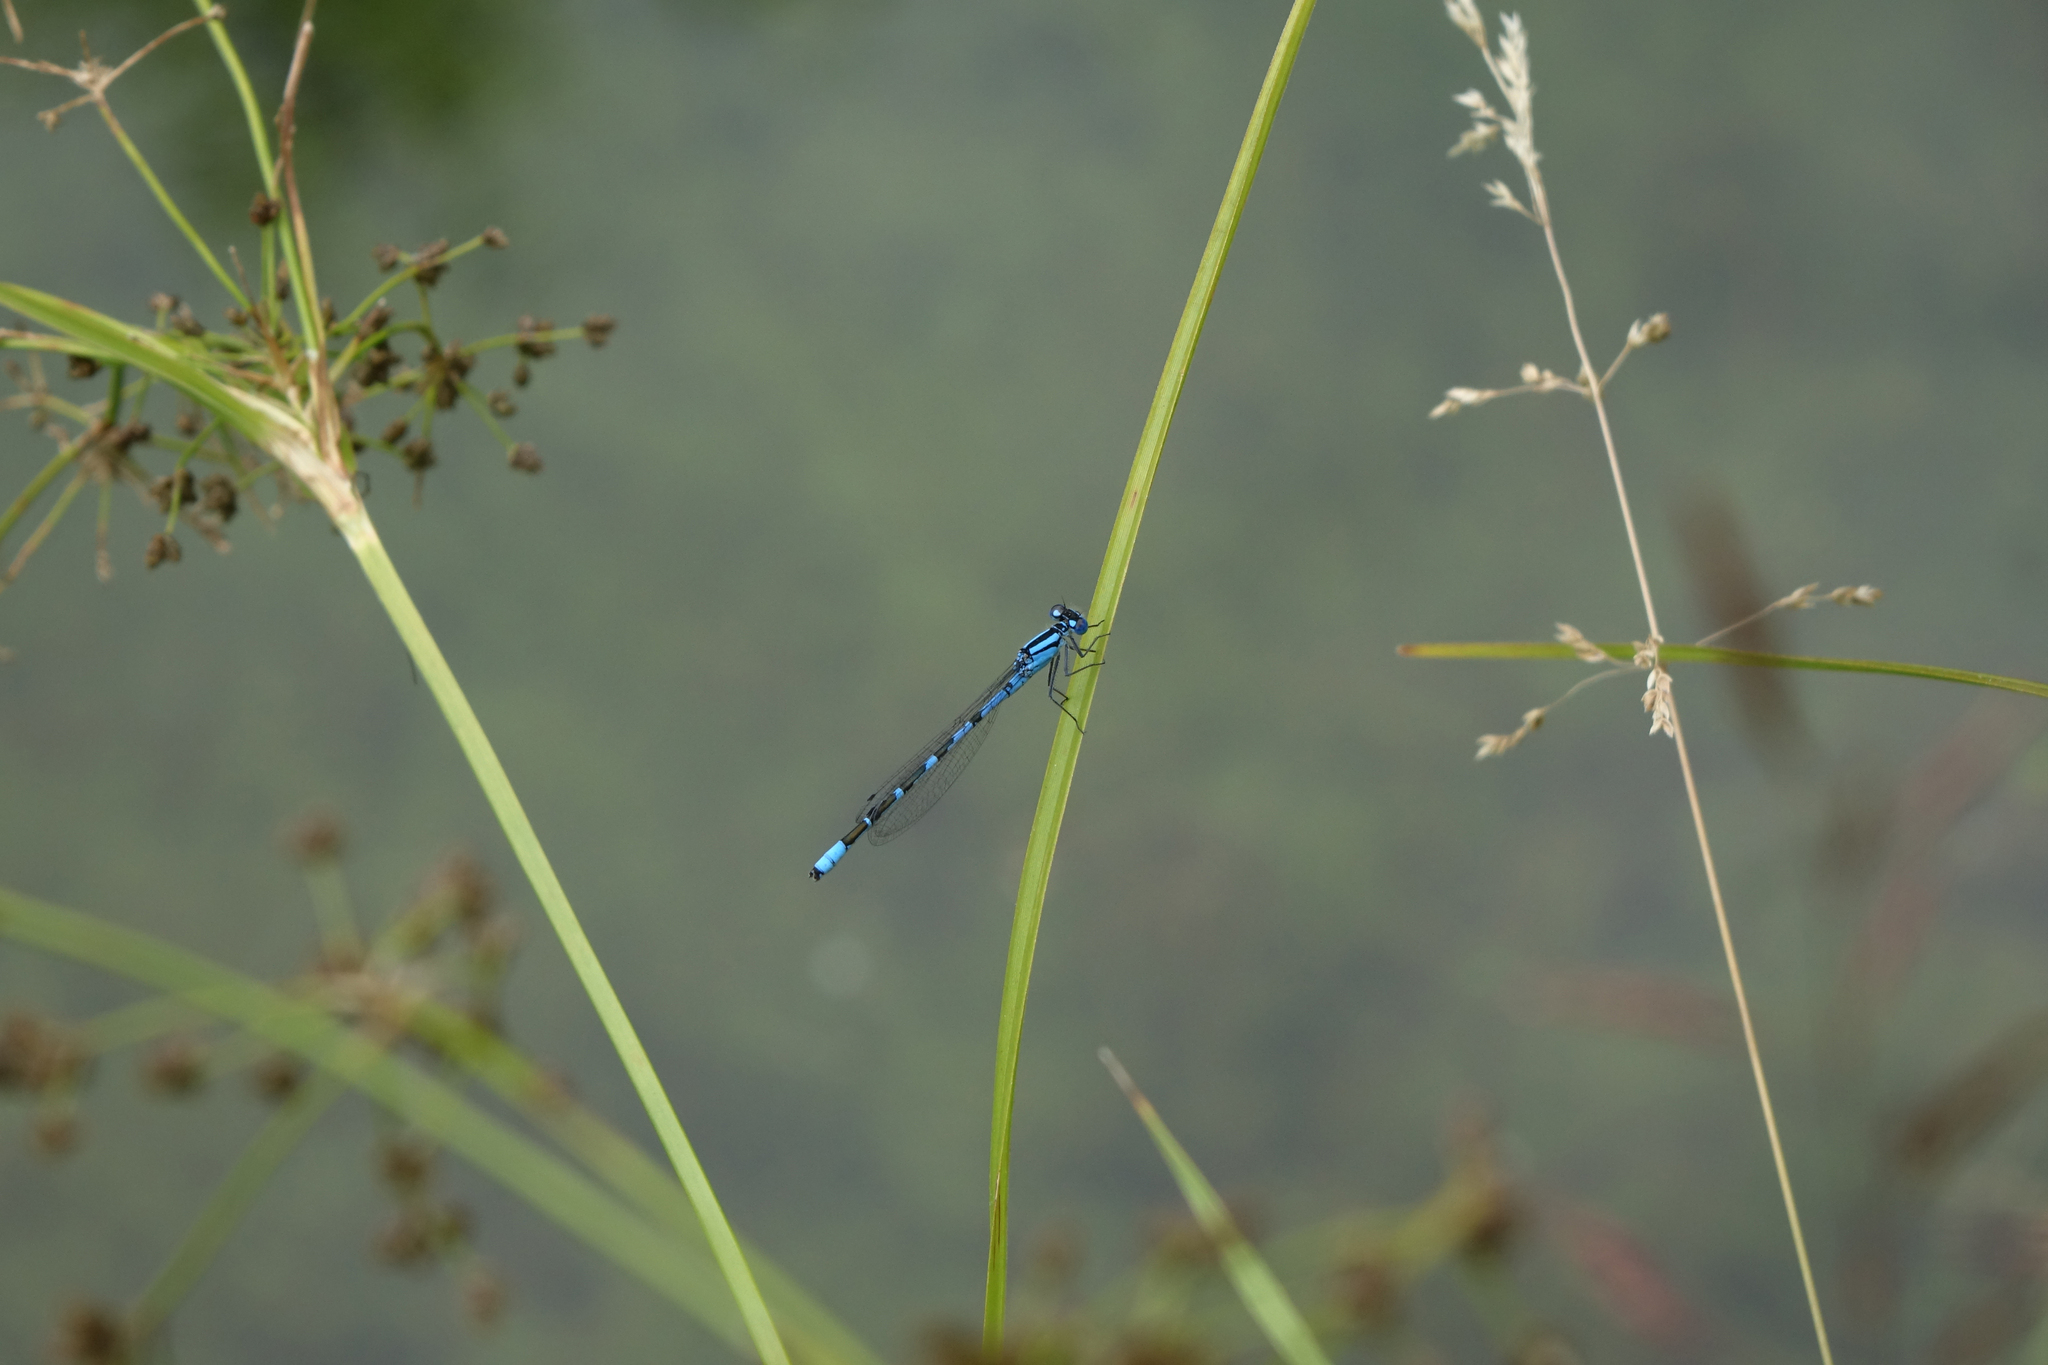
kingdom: Animalia
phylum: Arthropoda
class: Insecta
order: Odonata
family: Coenagrionidae
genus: Enallagma
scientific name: Enallagma cyathigerum
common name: Common blue damselfly
